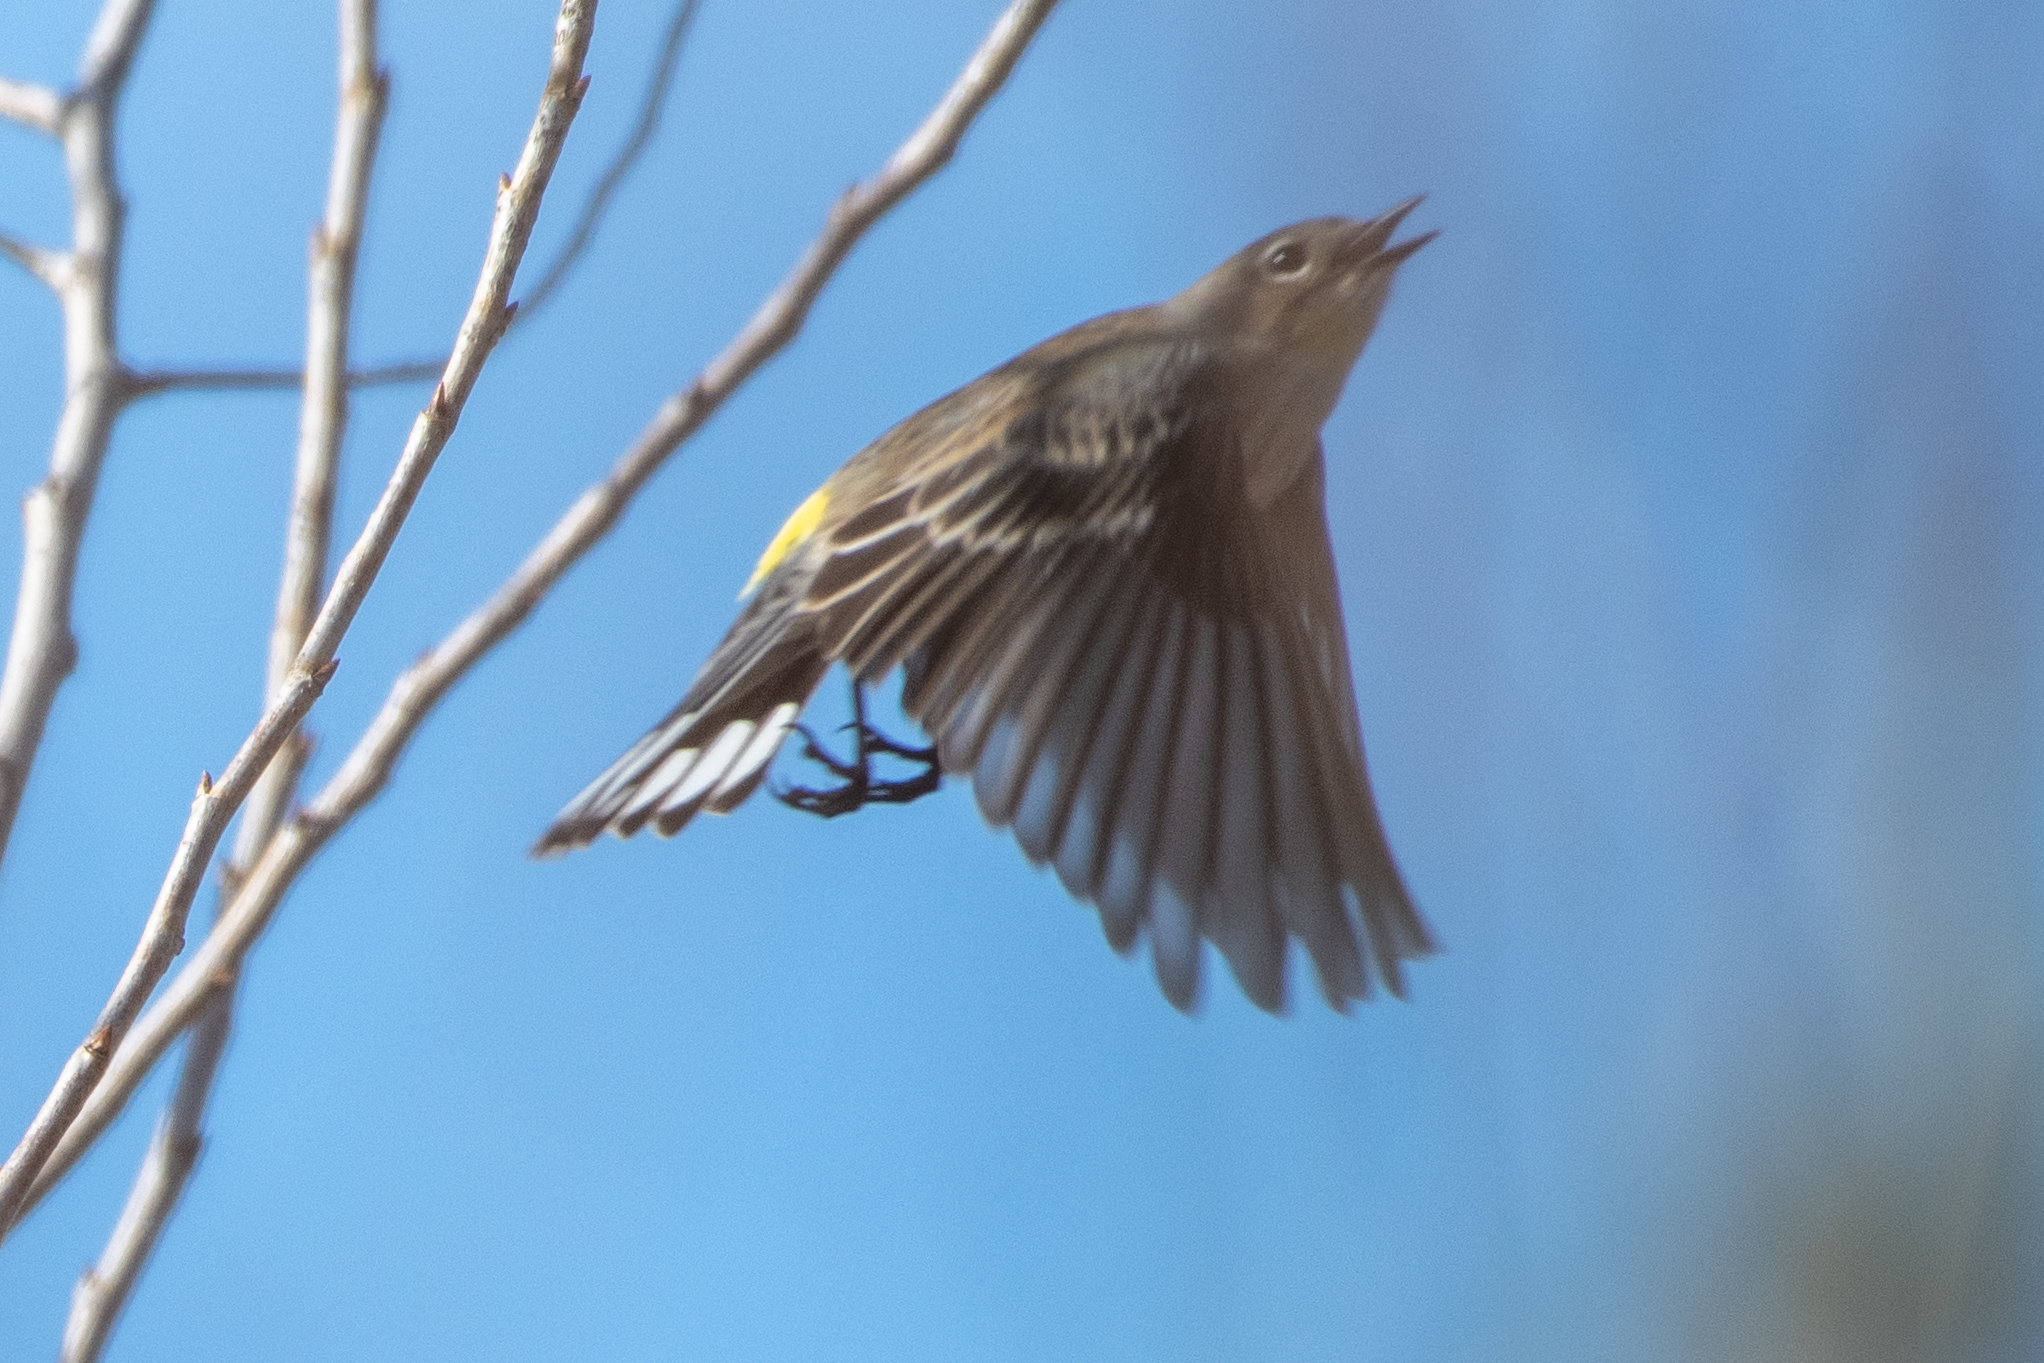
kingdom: Animalia
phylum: Chordata
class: Aves
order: Passeriformes
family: Parulidae
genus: Setophaga
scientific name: Setophaga coronata
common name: Myrtle warbler
